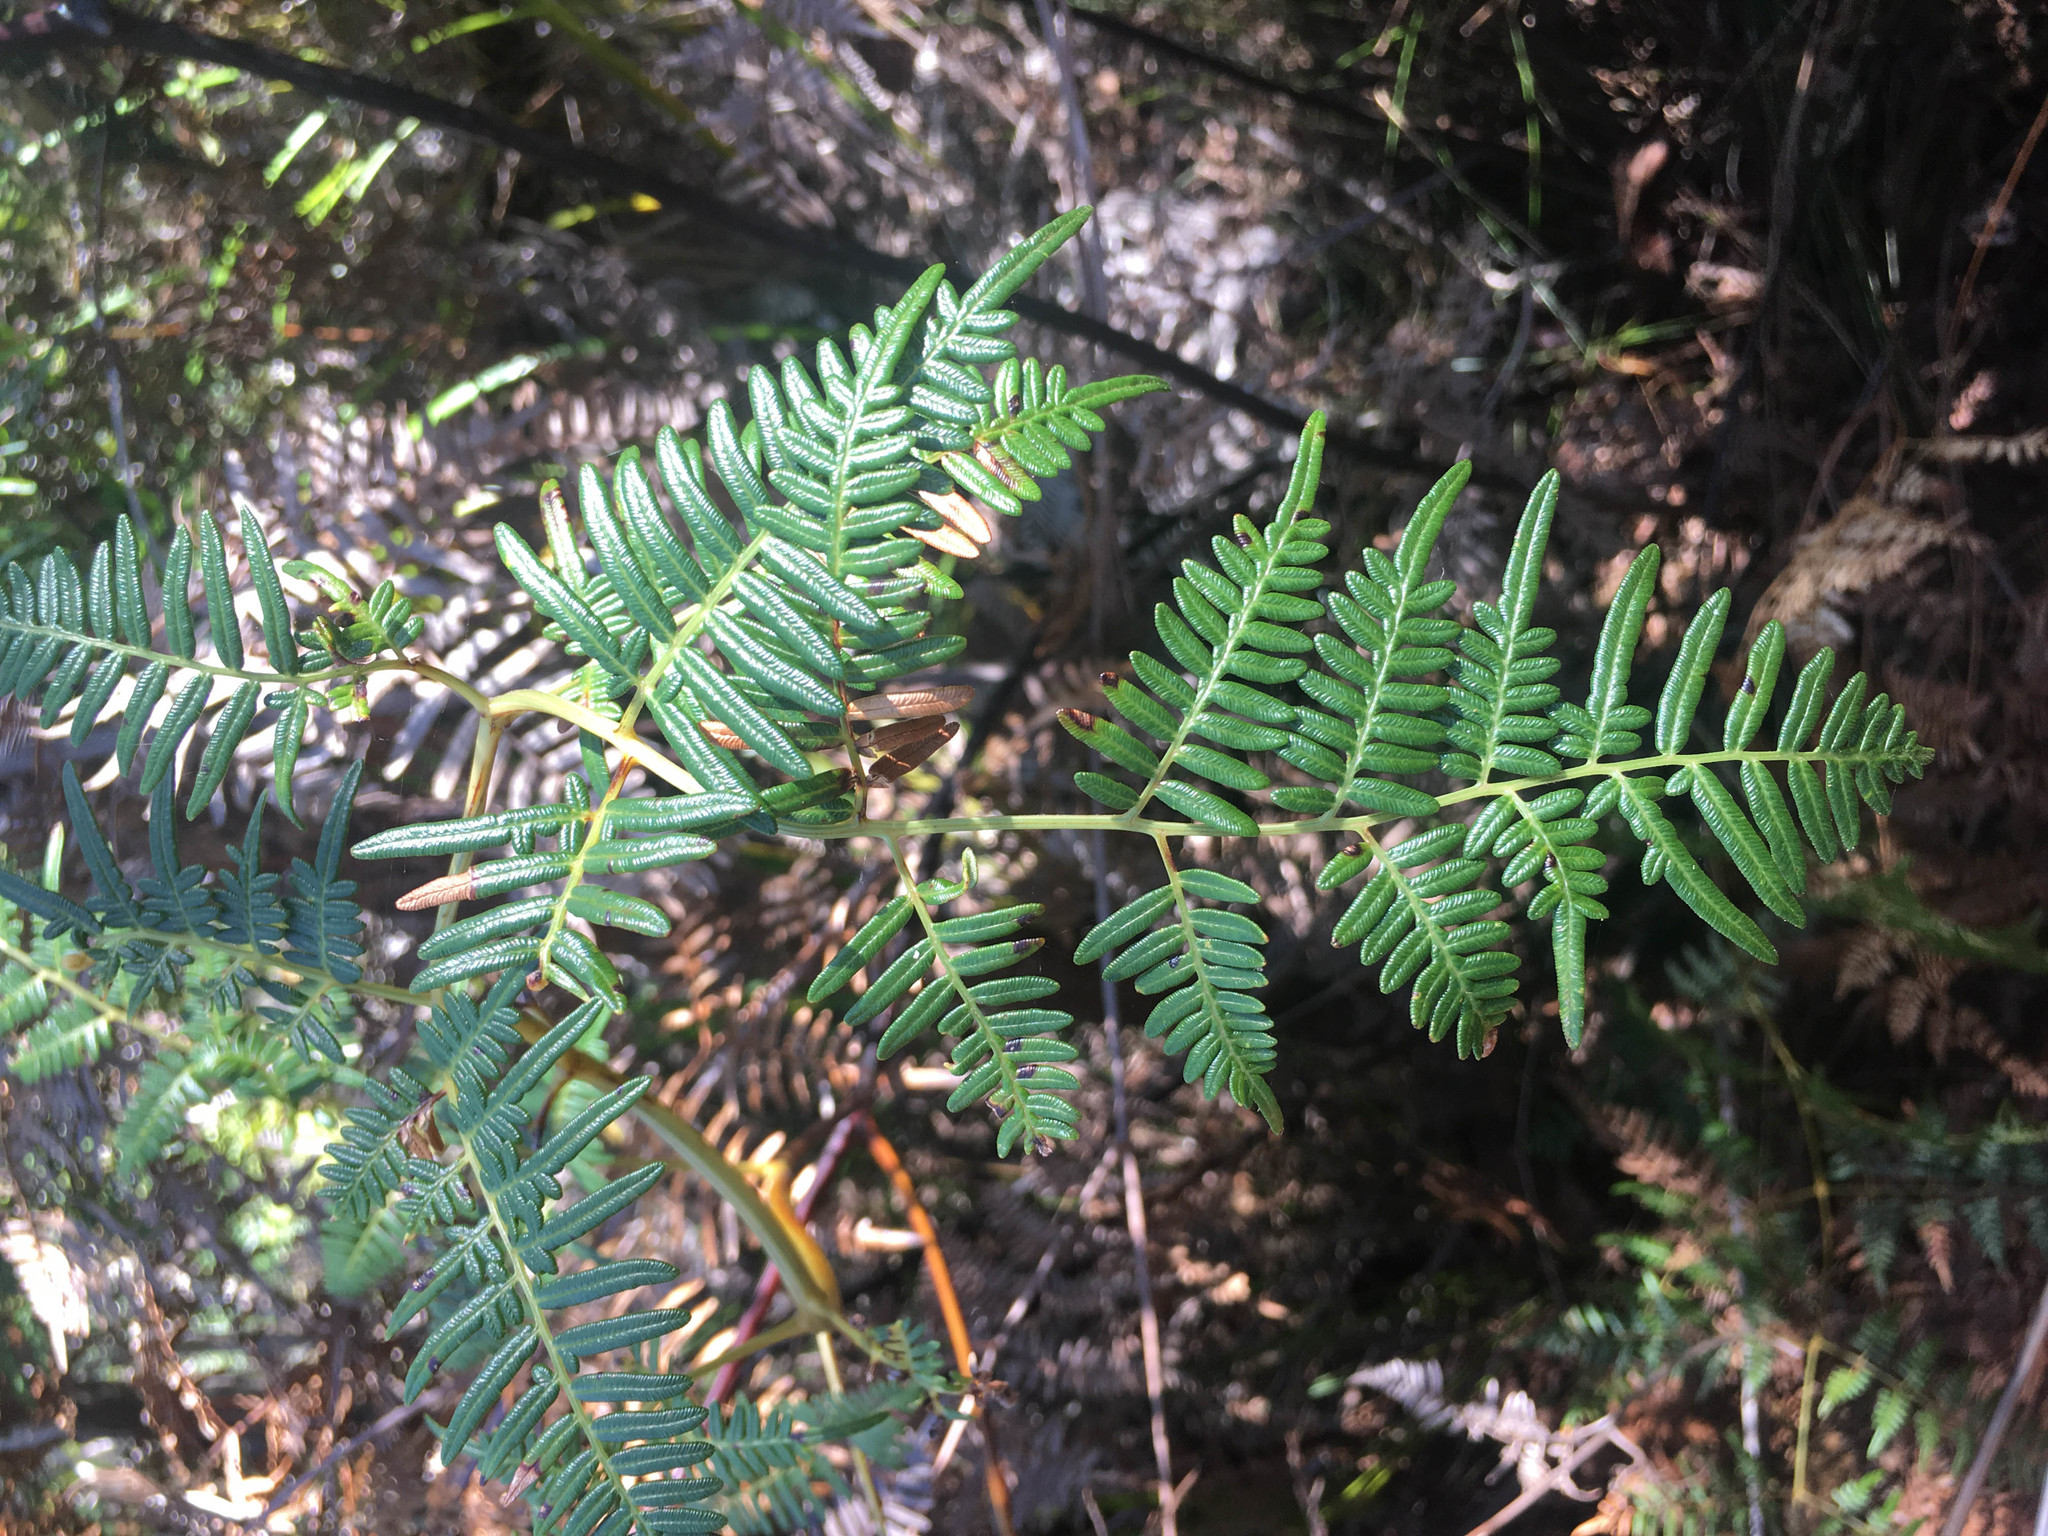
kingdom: Plantae
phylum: Tracheophyta
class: Polypodiopsida
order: Polypodiales
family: Dennstaedtiaceae
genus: Pteridium
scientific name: Pteridium esculentum
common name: Bracken fern
